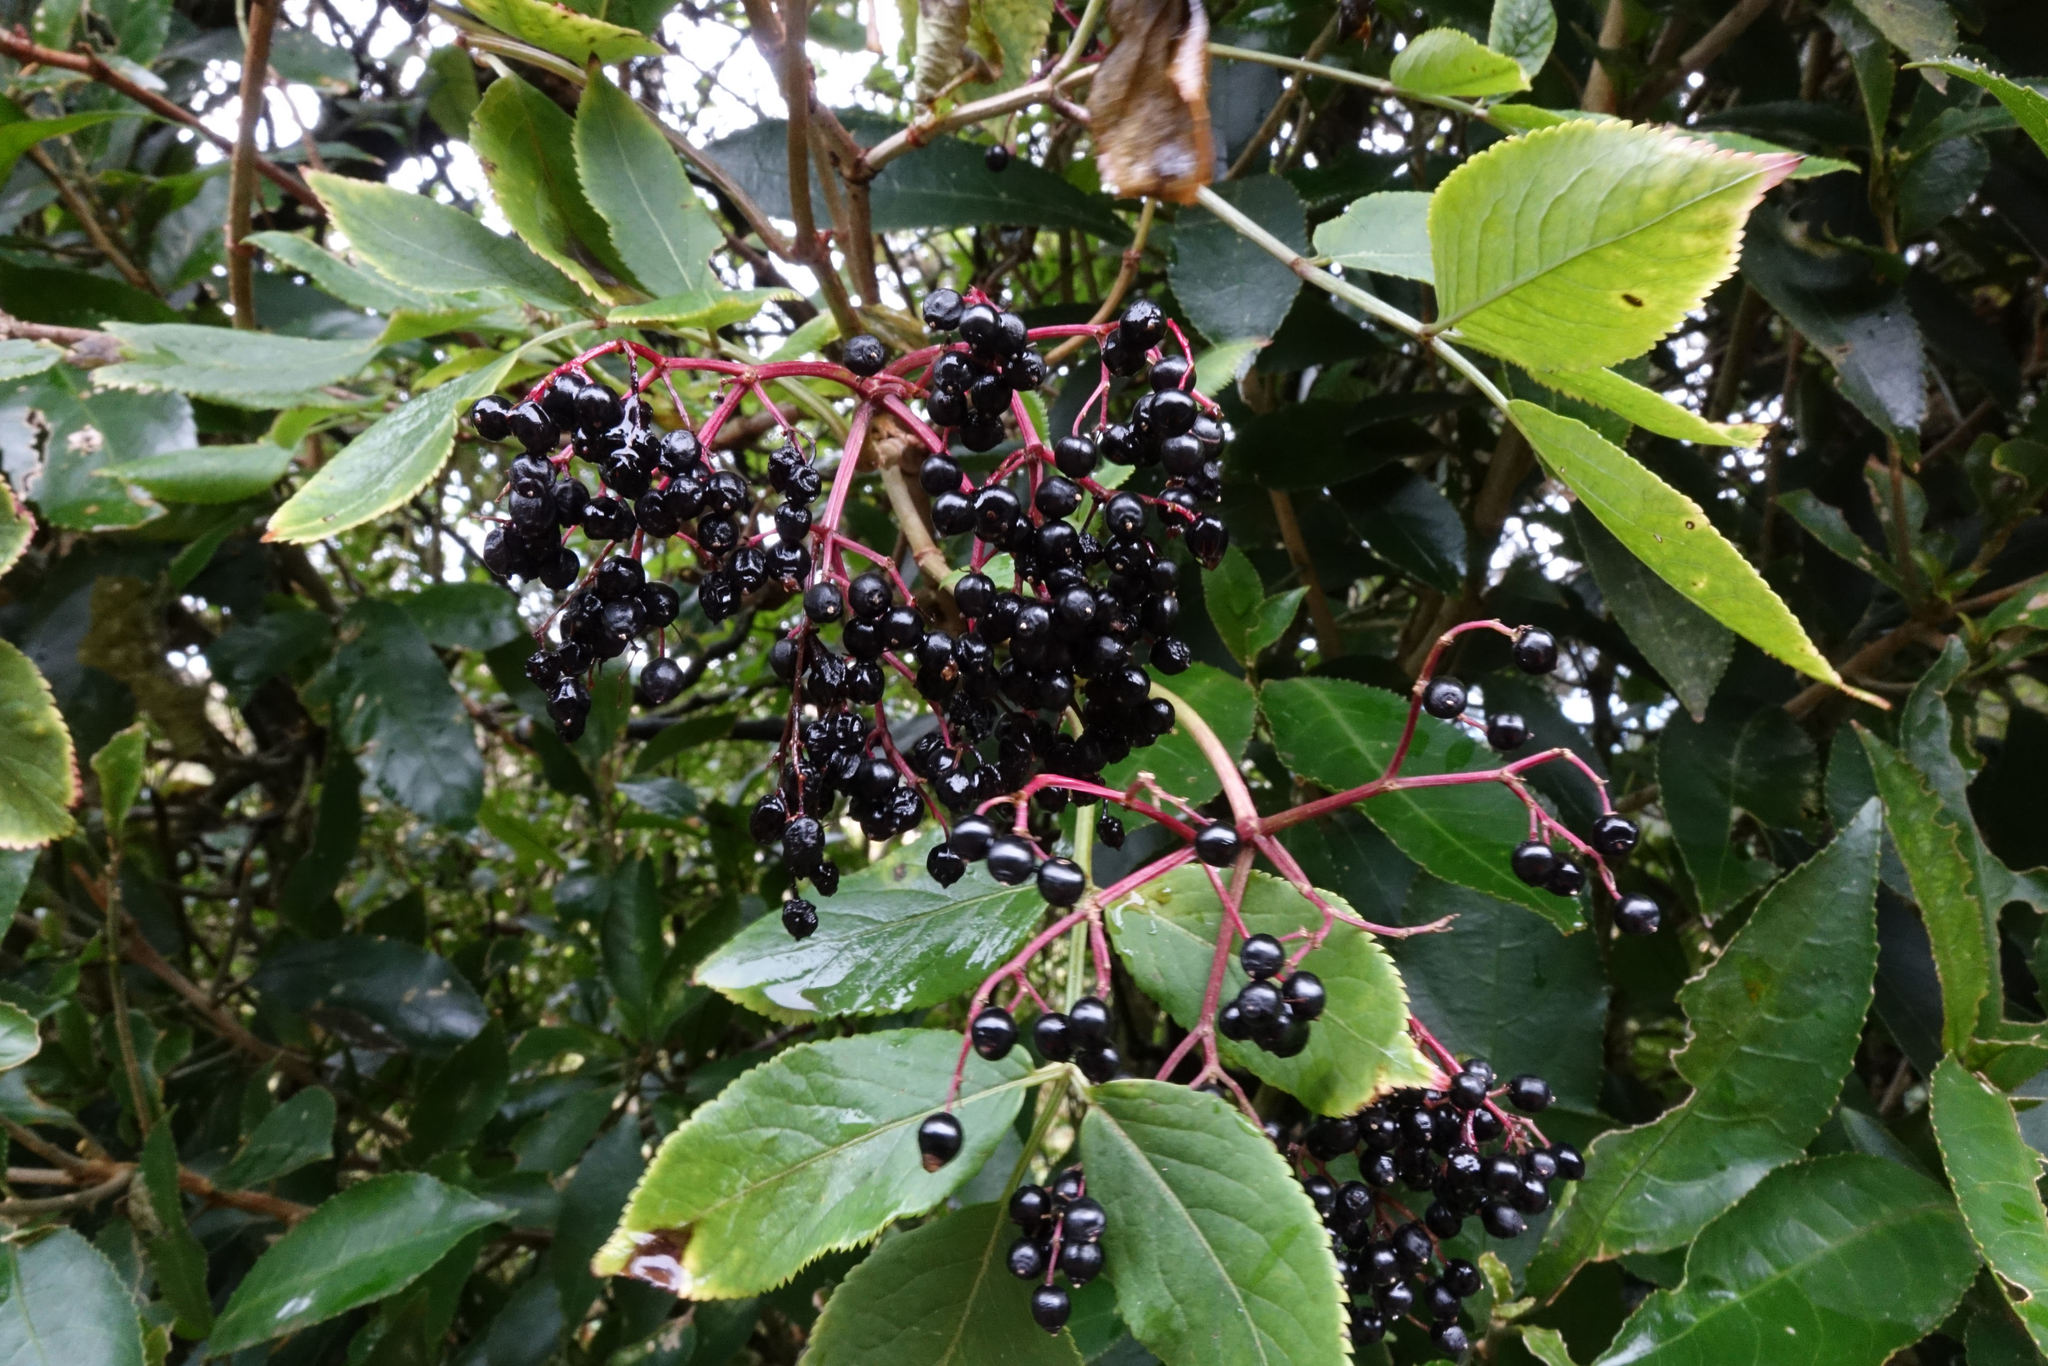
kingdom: Plantae
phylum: Tracheophyta
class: Magnoliopsida
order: Dipsacales
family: Viburnaceae
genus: Sambucus
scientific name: Sambucus nigra
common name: Elder
